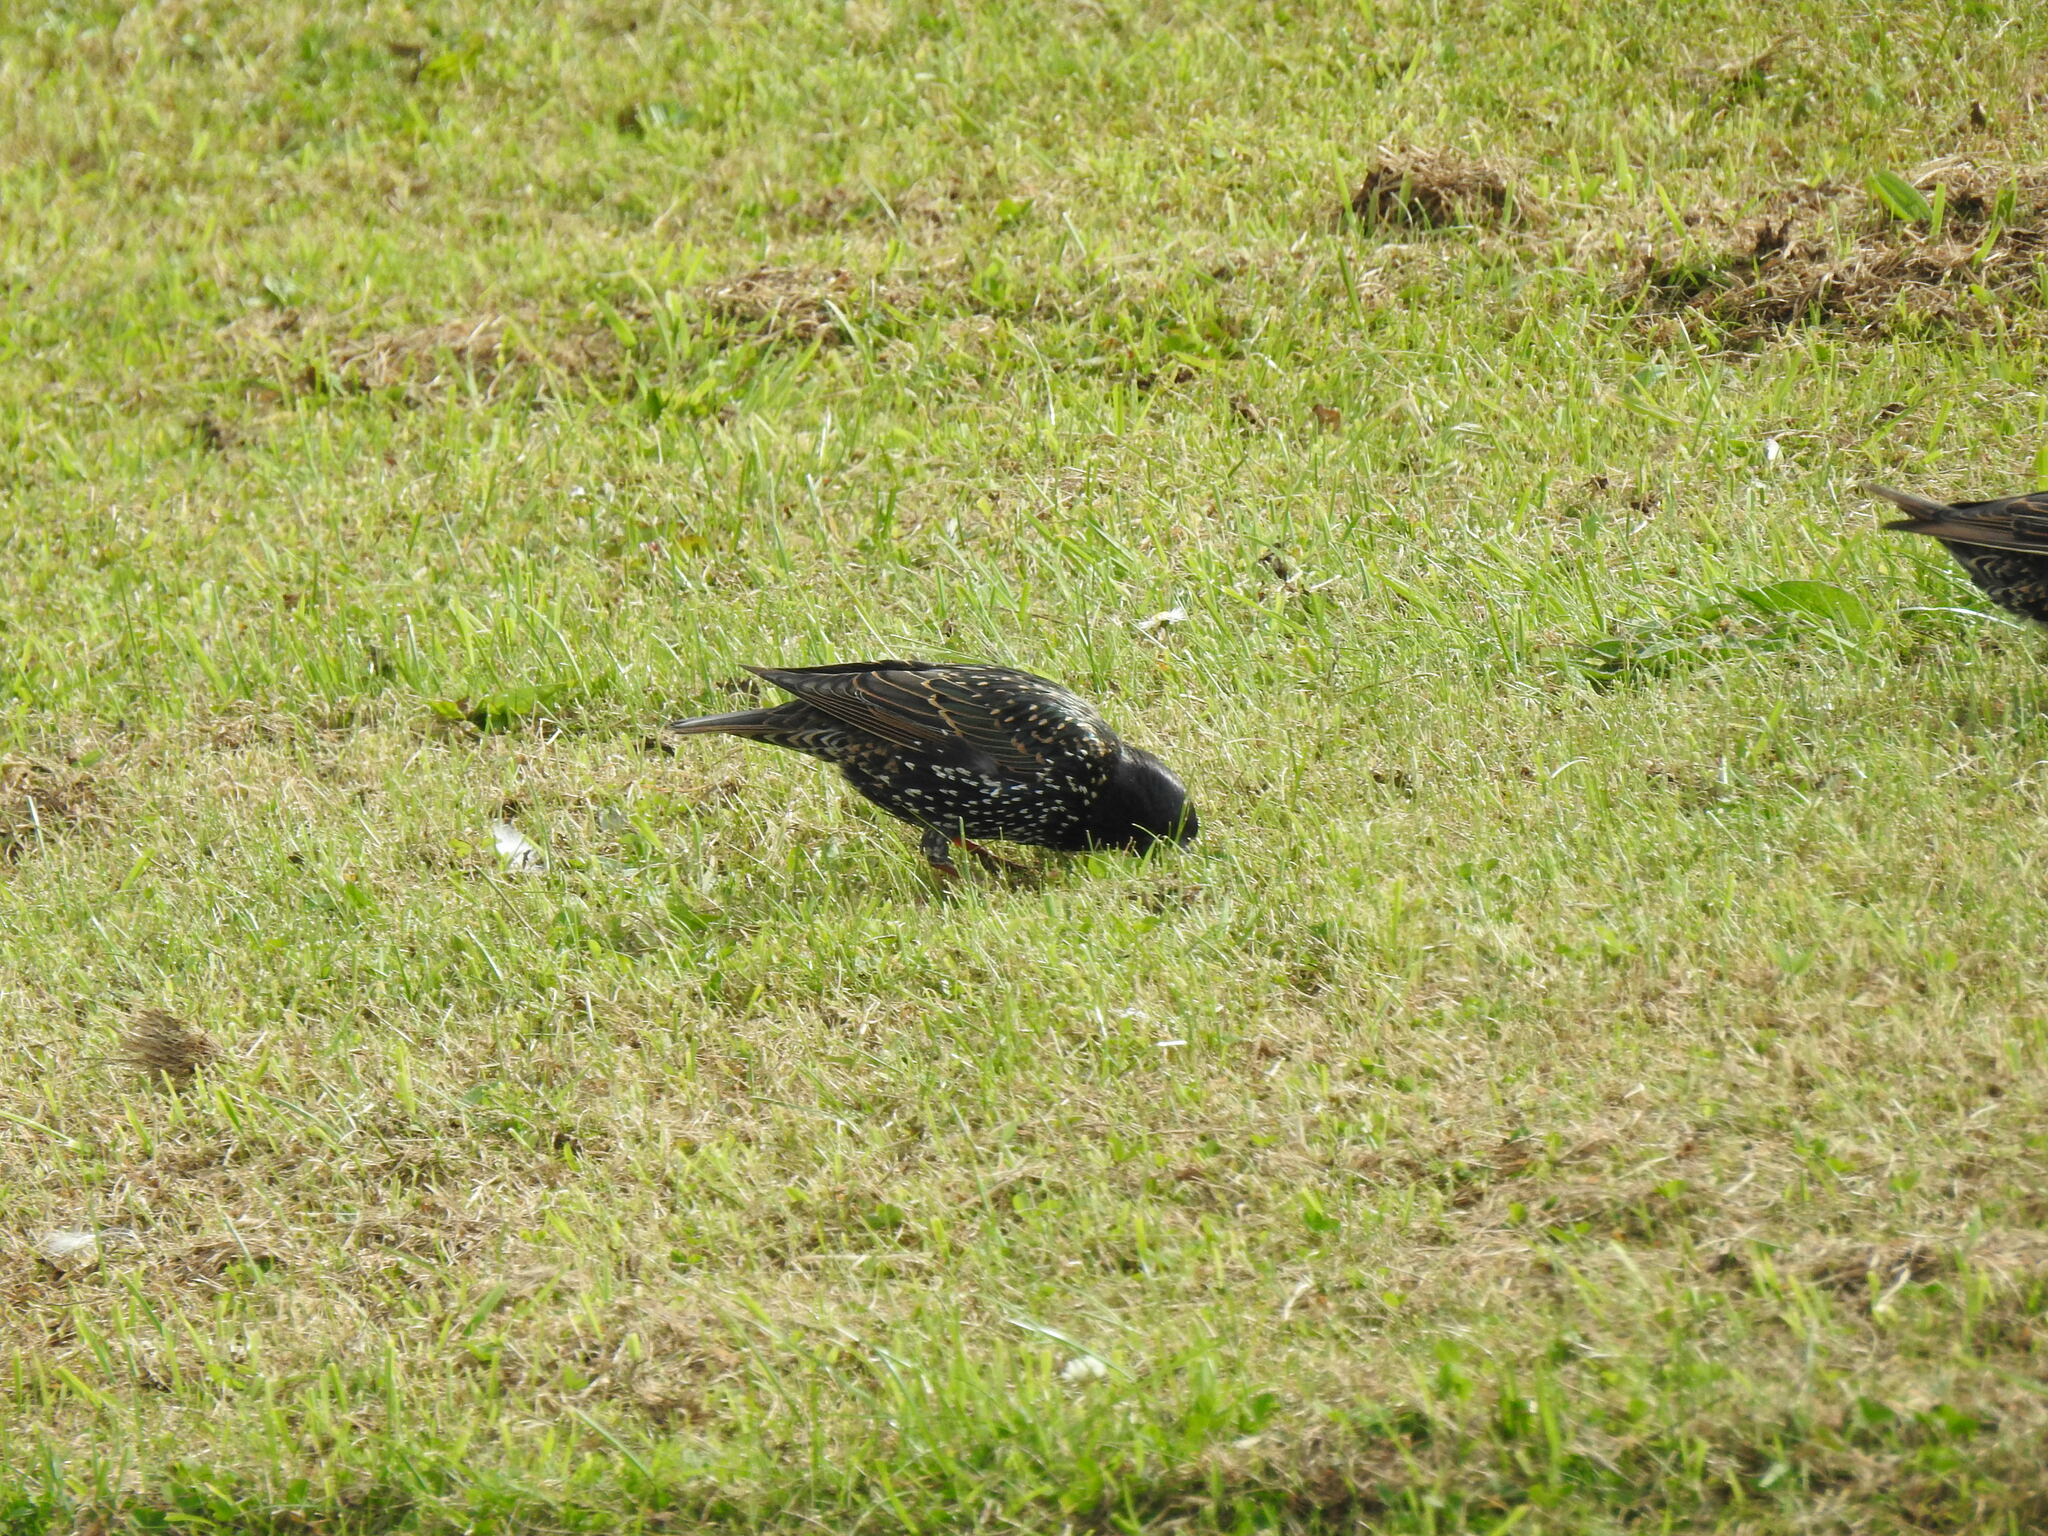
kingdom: Animalia
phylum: Chordata
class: Aves
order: Passeriformes
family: Sturnidae
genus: Sturnus
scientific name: Sturnus vulgaris
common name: Common starling
